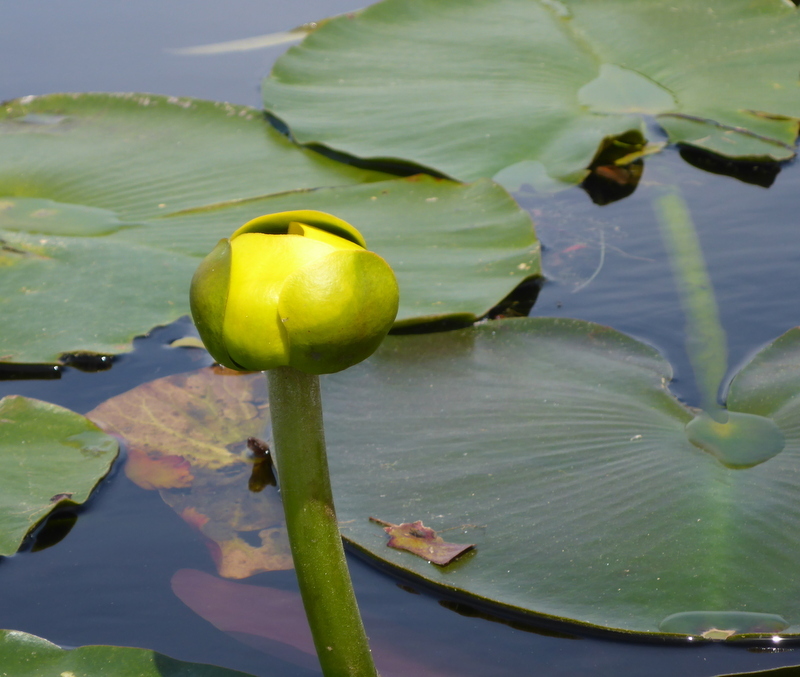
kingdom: Plantae
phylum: Tracheophyta
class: Magnoliopsida
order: Nymphaeales
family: Nymphaeaceae
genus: Nuphar
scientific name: Nuphar advena
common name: Spatter-dock
